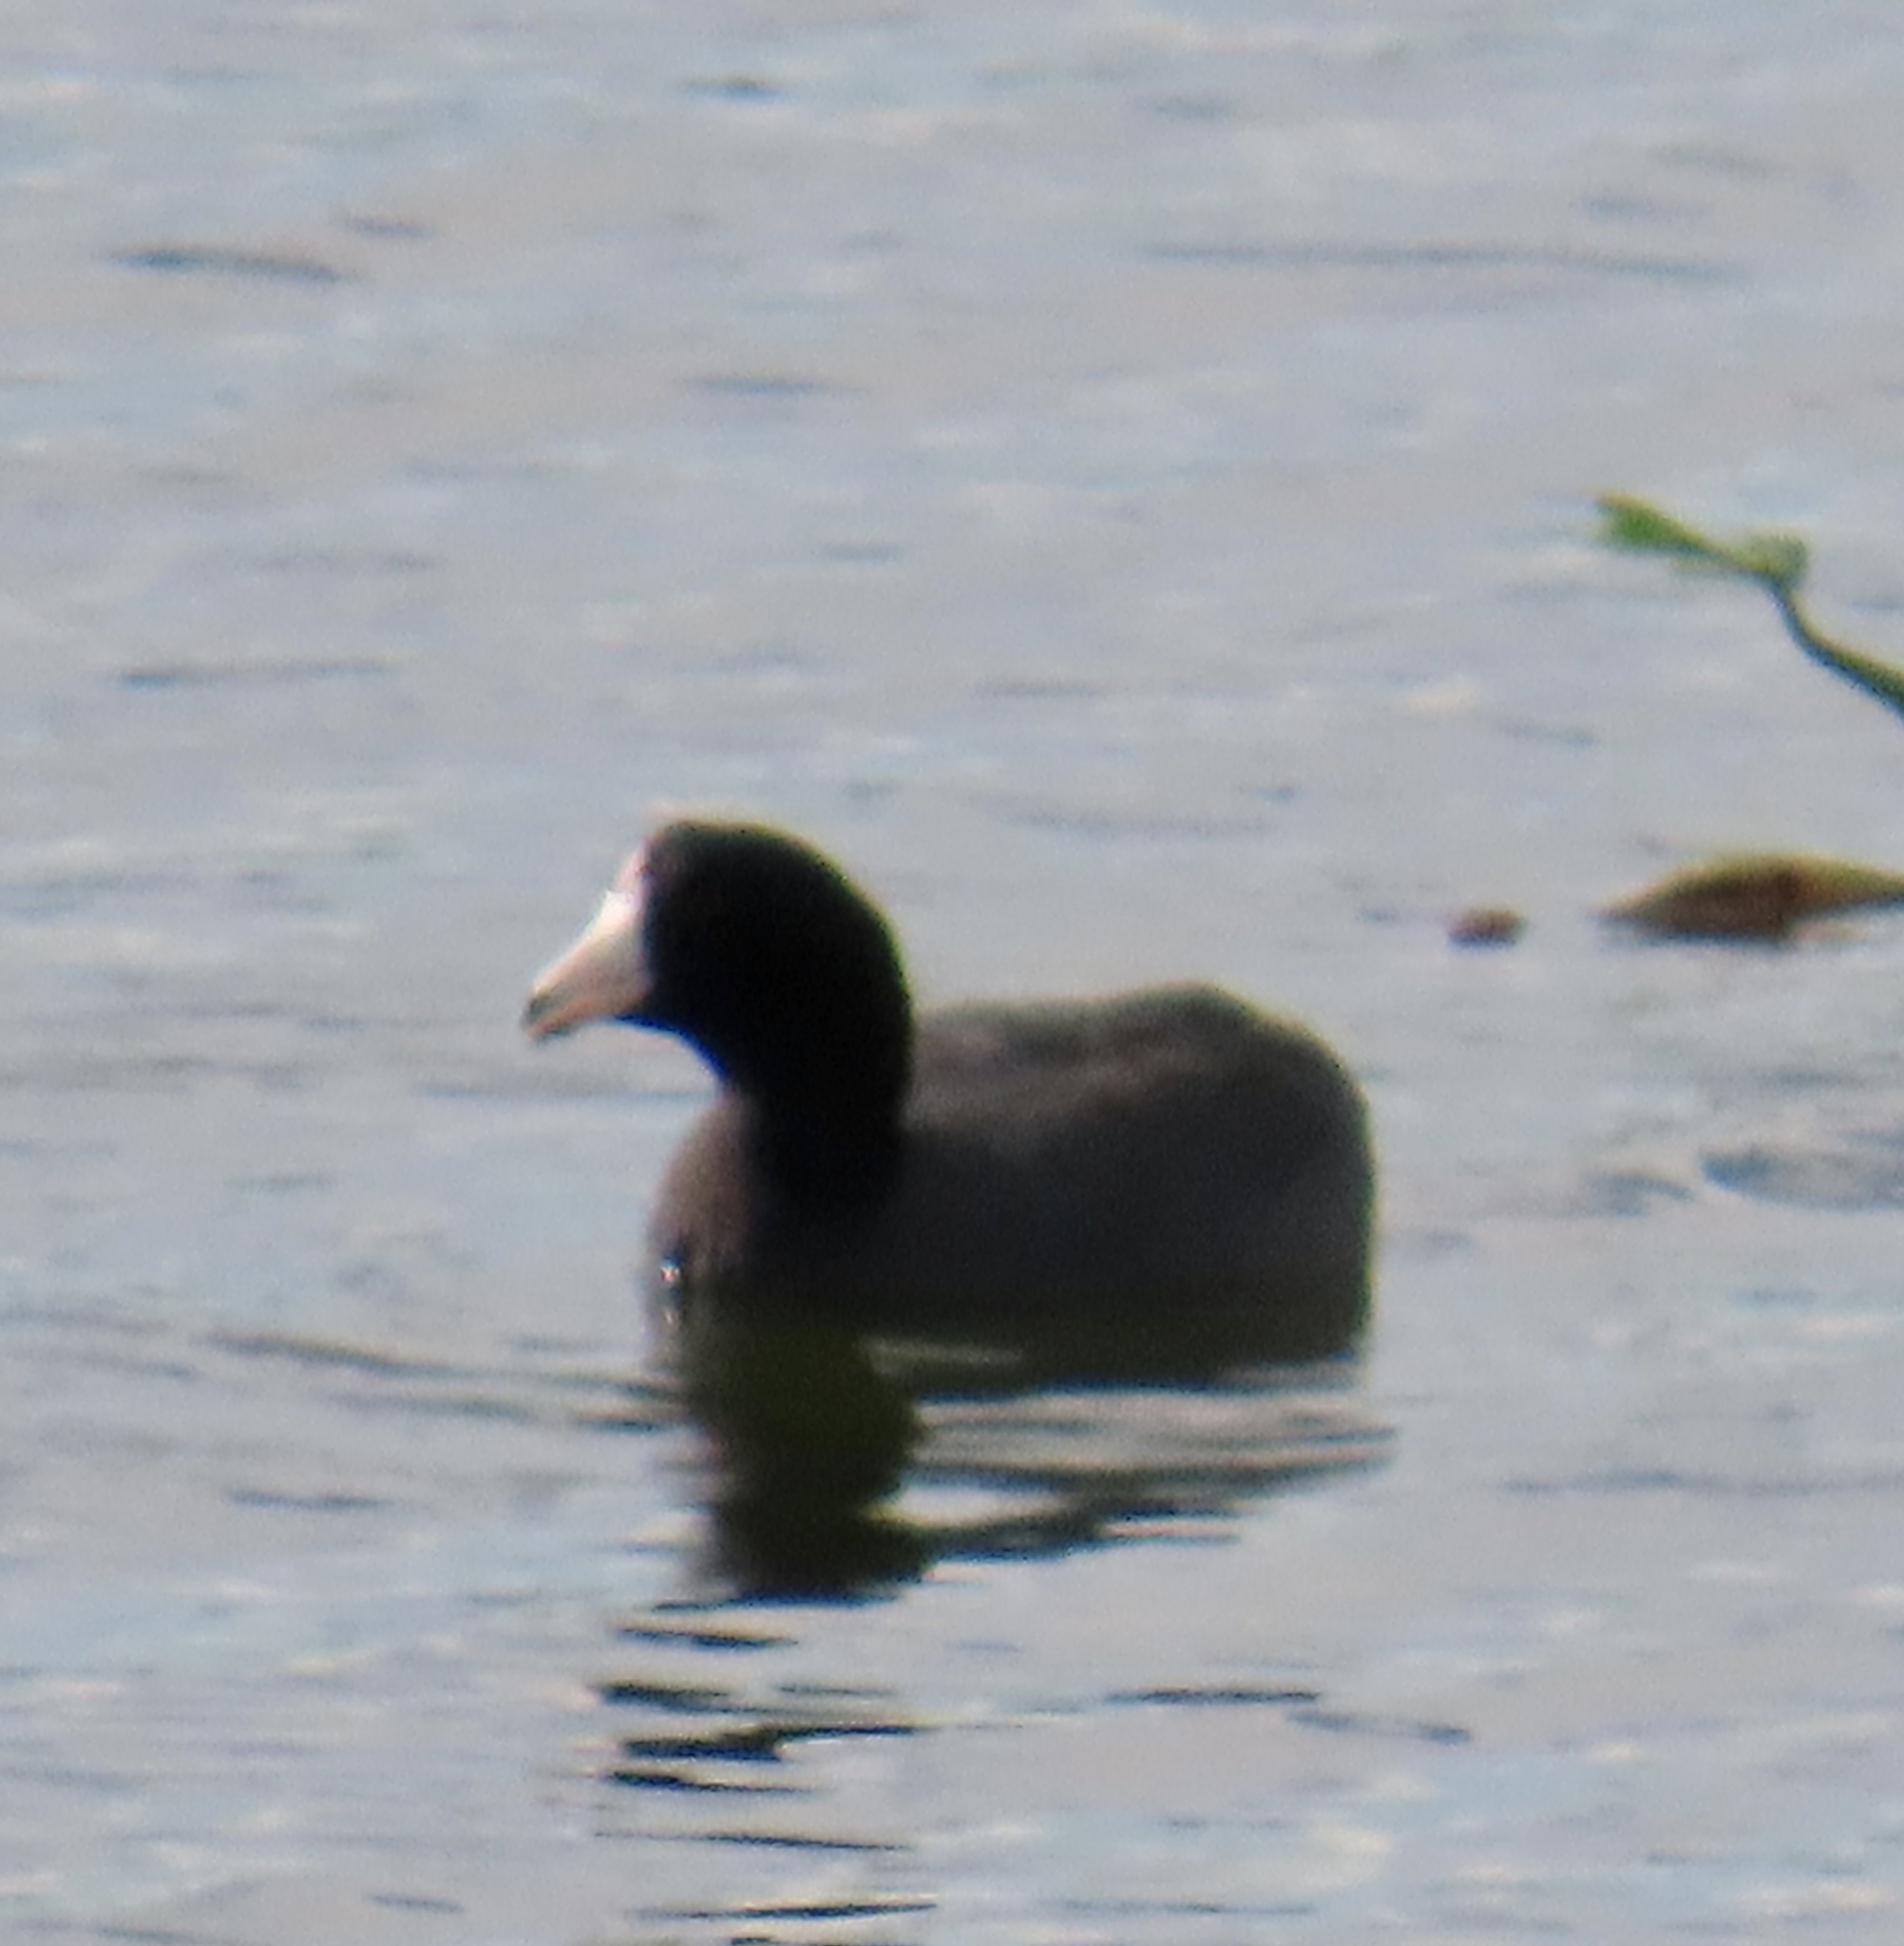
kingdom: Animalia
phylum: Chordata
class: Aves
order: Gruiformes
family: Rallidae
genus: Fulica
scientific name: Fulica americana
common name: American coot
